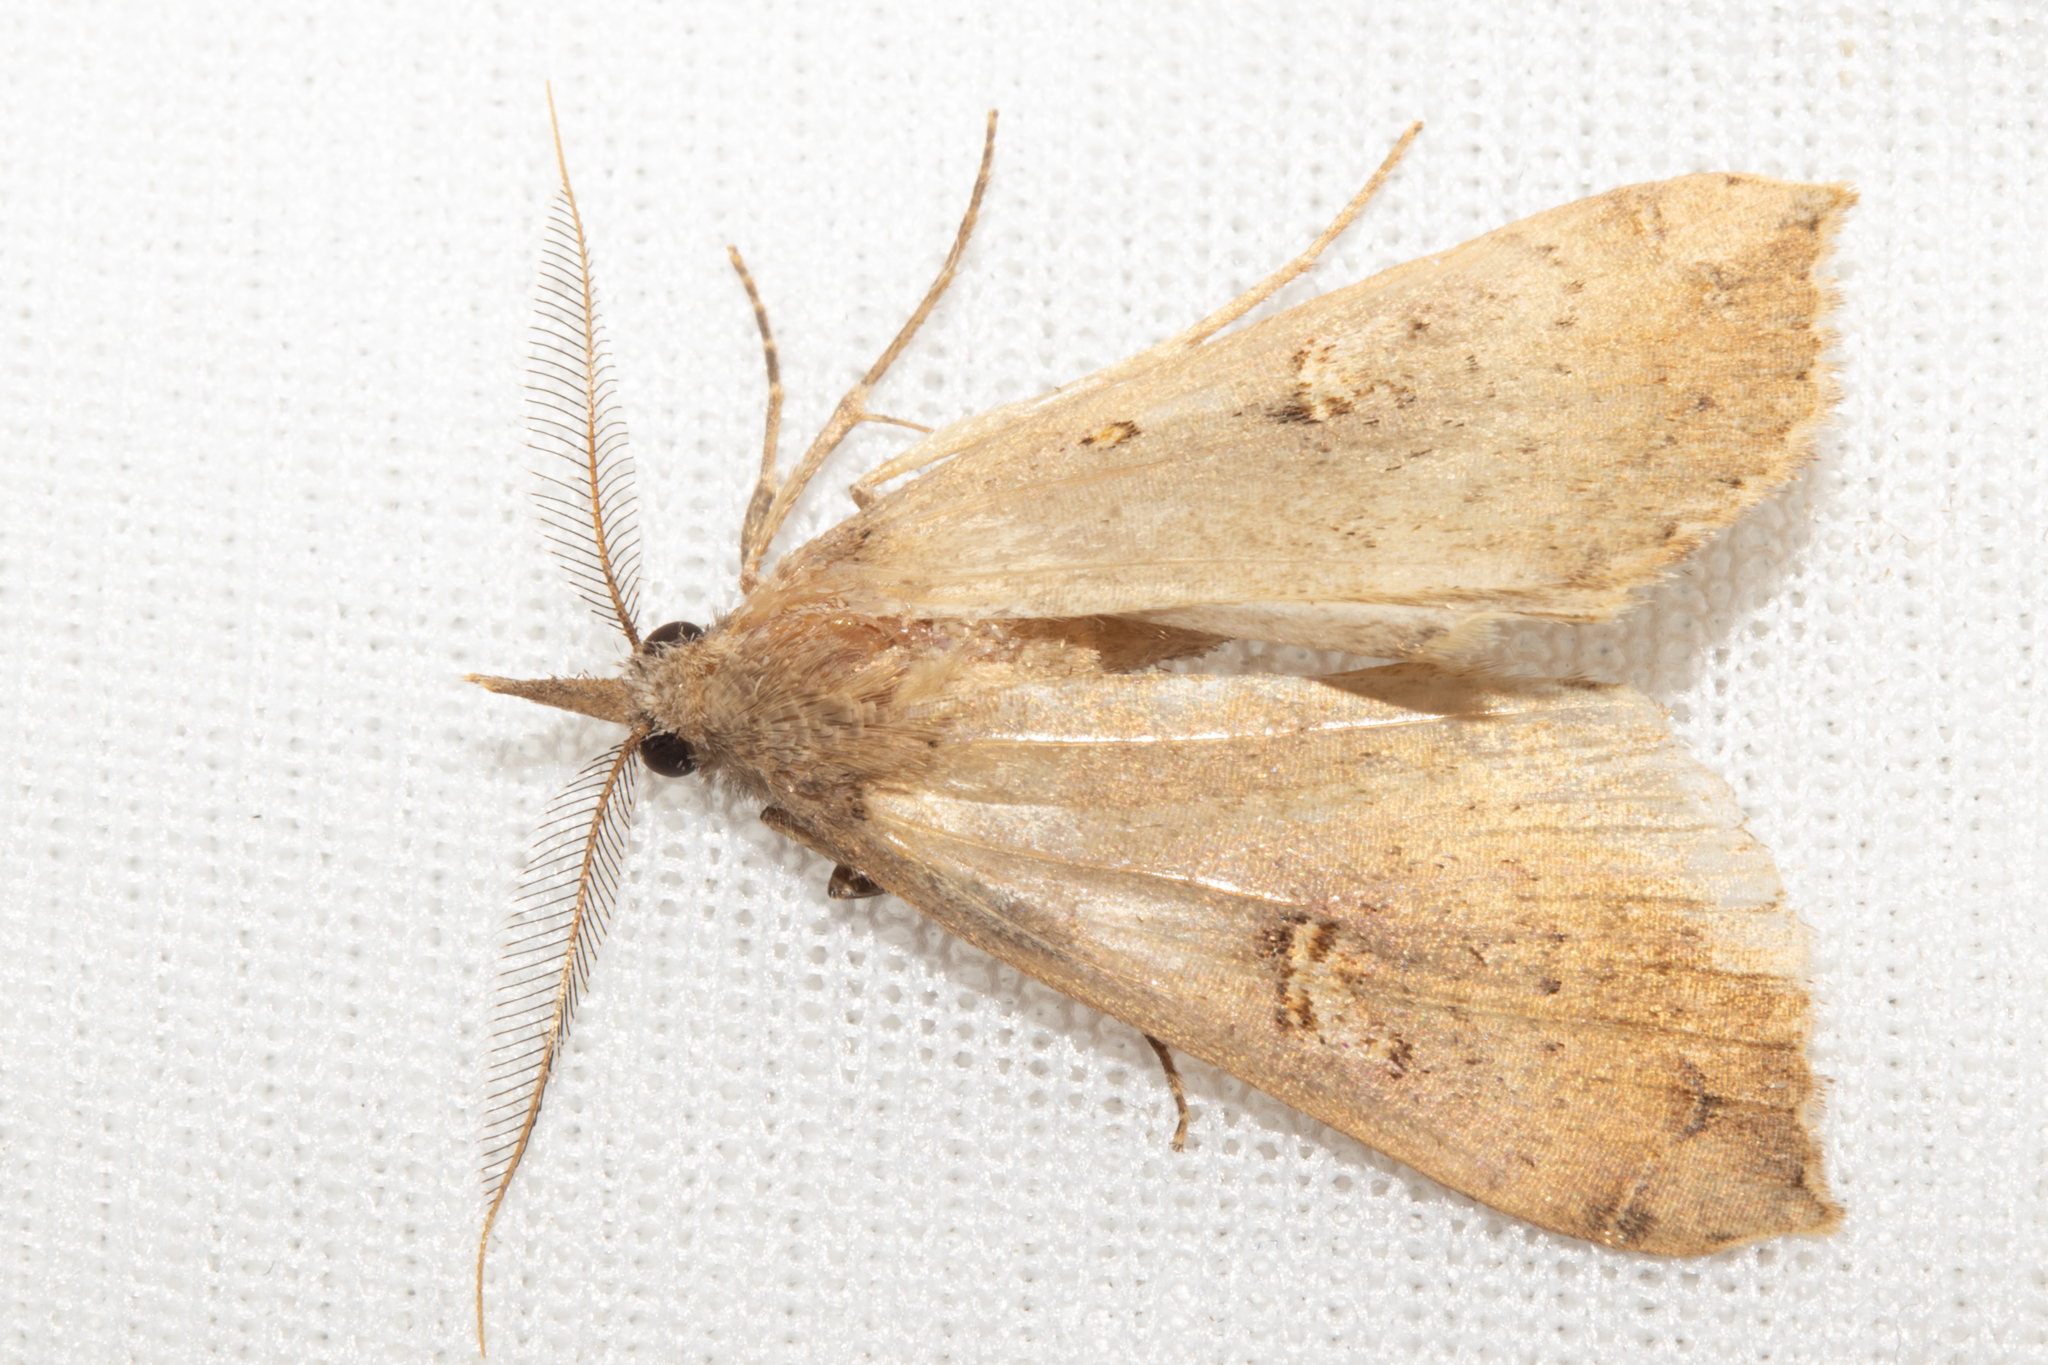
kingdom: Animalia
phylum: Arthropoda
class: Insecta
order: Lepidoptera
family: Erebidae
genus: Rhapsa
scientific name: Rhapsa scotosialis
